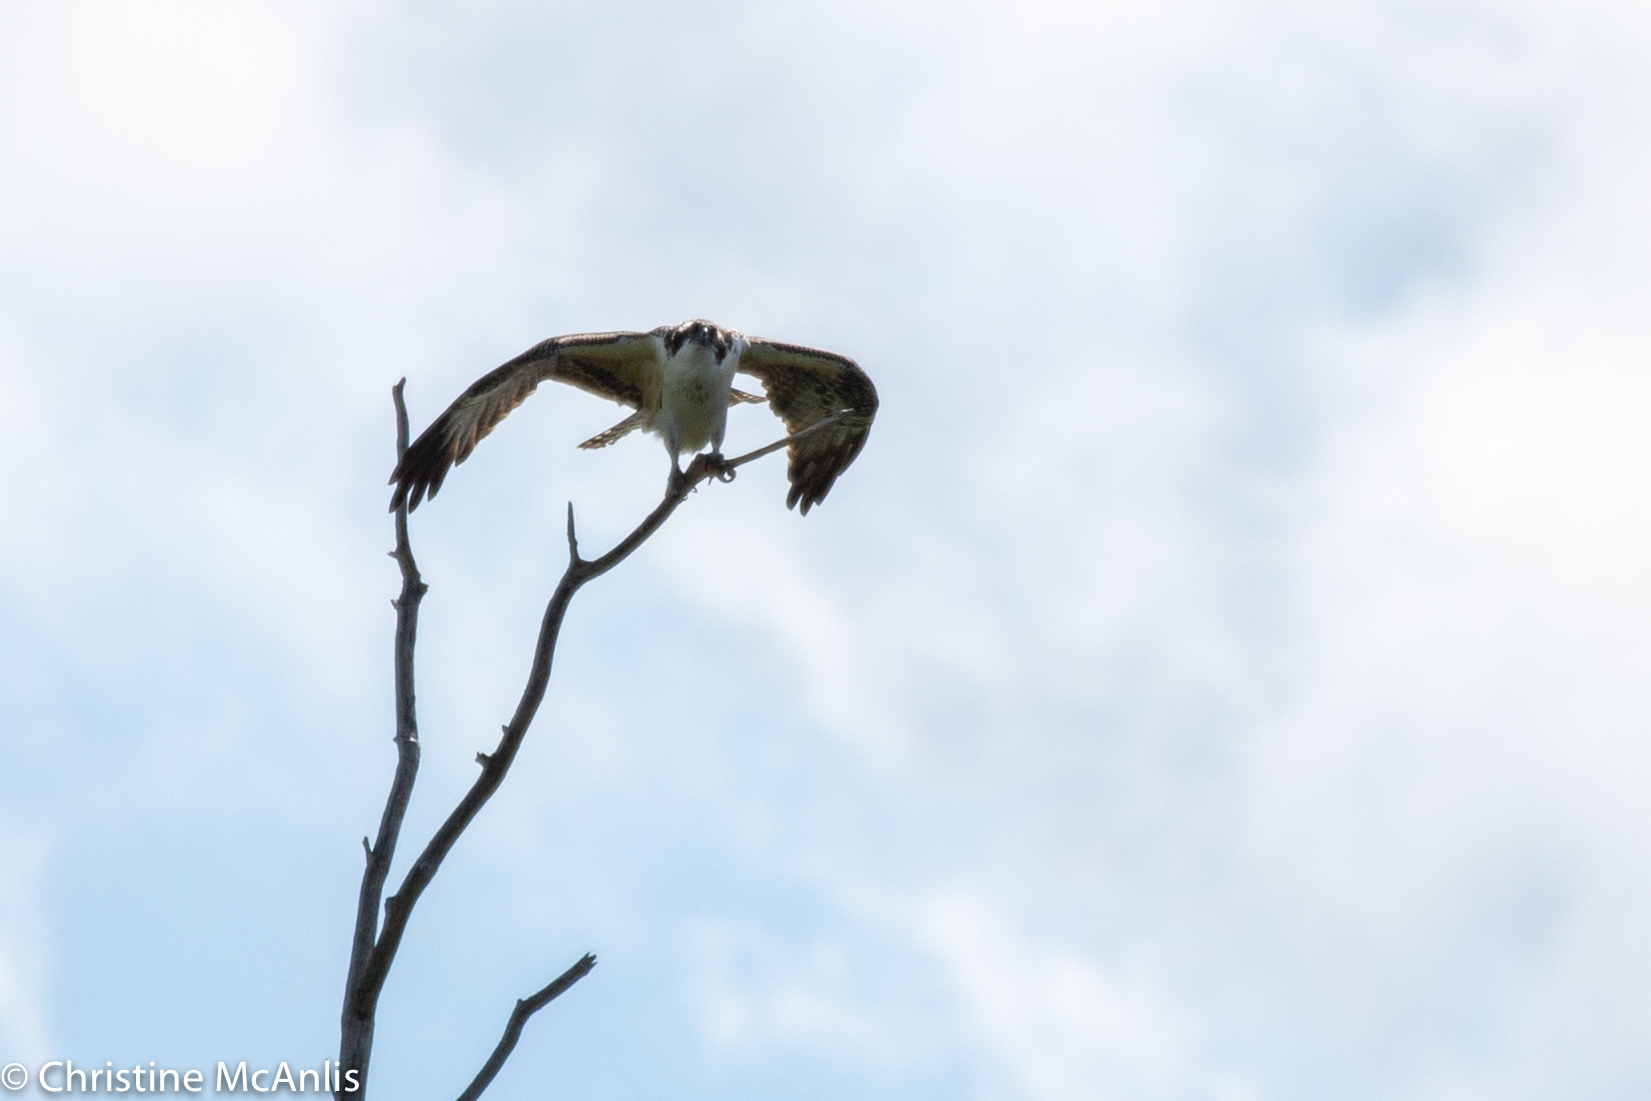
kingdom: Animalia
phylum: Chordata
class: Aves
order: Accipitriformes
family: Pandionidae
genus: Pandion
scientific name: Pandion haliaetus
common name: Osprey
